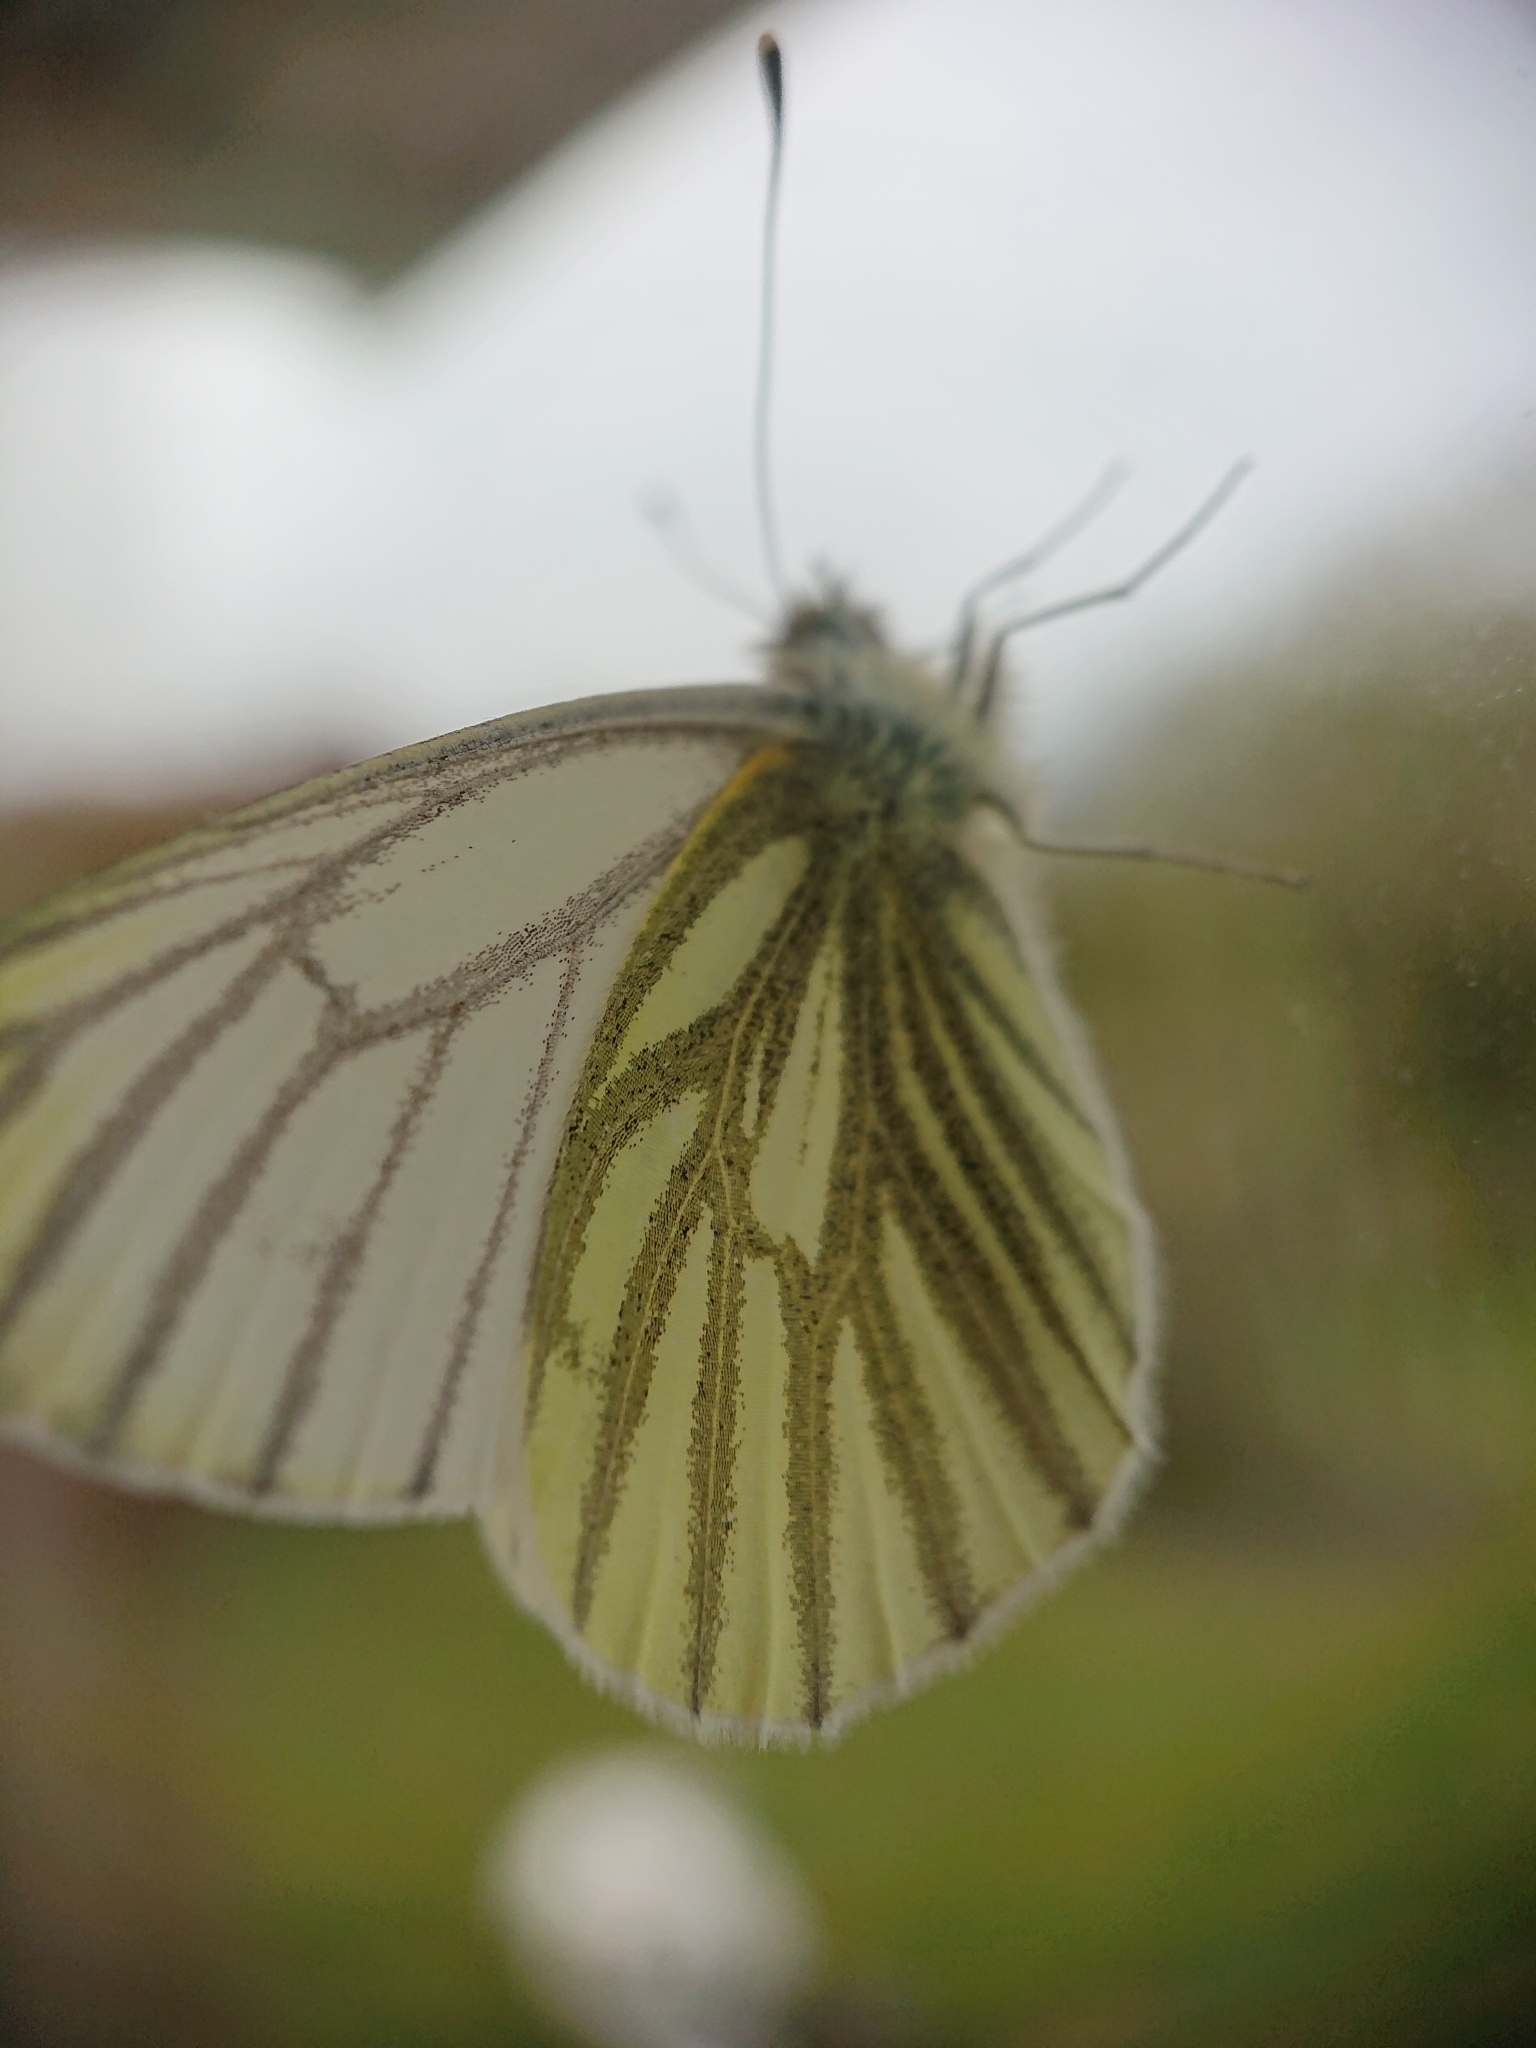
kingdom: Animalia
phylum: Arthropoda
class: Insecta
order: Lepidoptera
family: Pieridae
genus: Pieris
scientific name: Pieris napi
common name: Green-veined white
